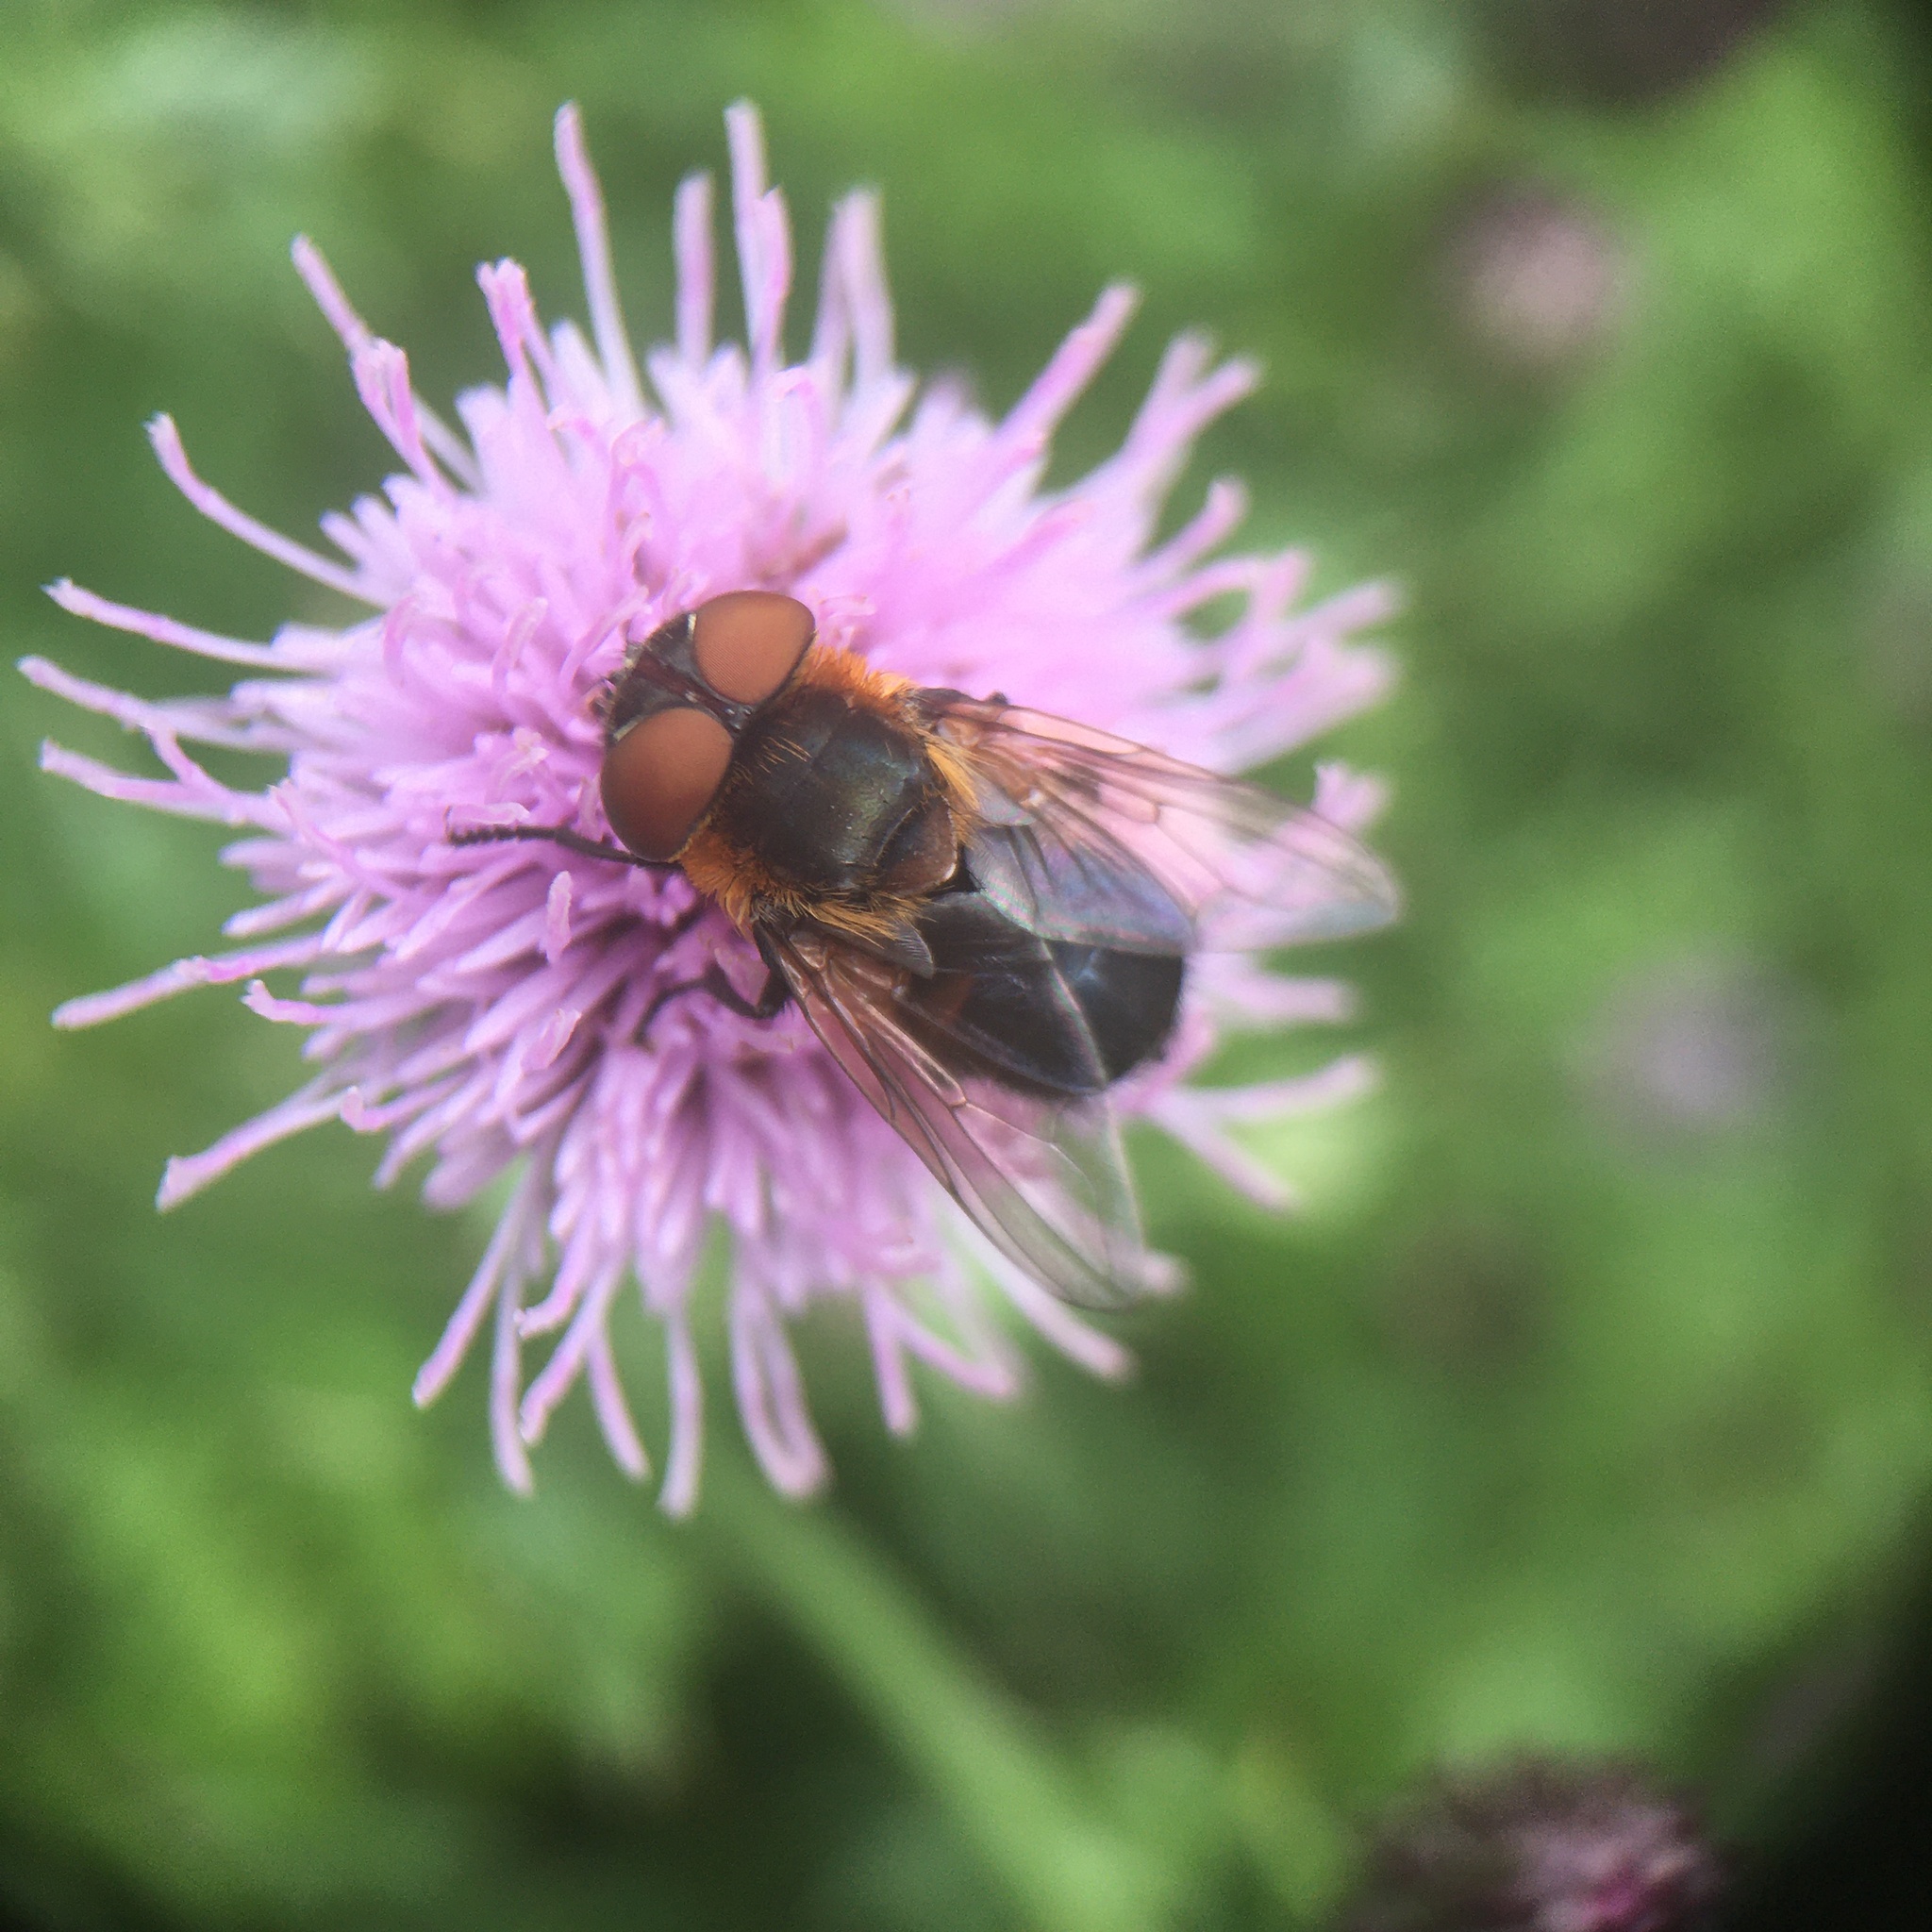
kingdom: Animalia
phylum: Arthropoda
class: Insecta
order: Diptera
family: Tachinidae
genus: Phasia
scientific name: Phasia hemiptera
